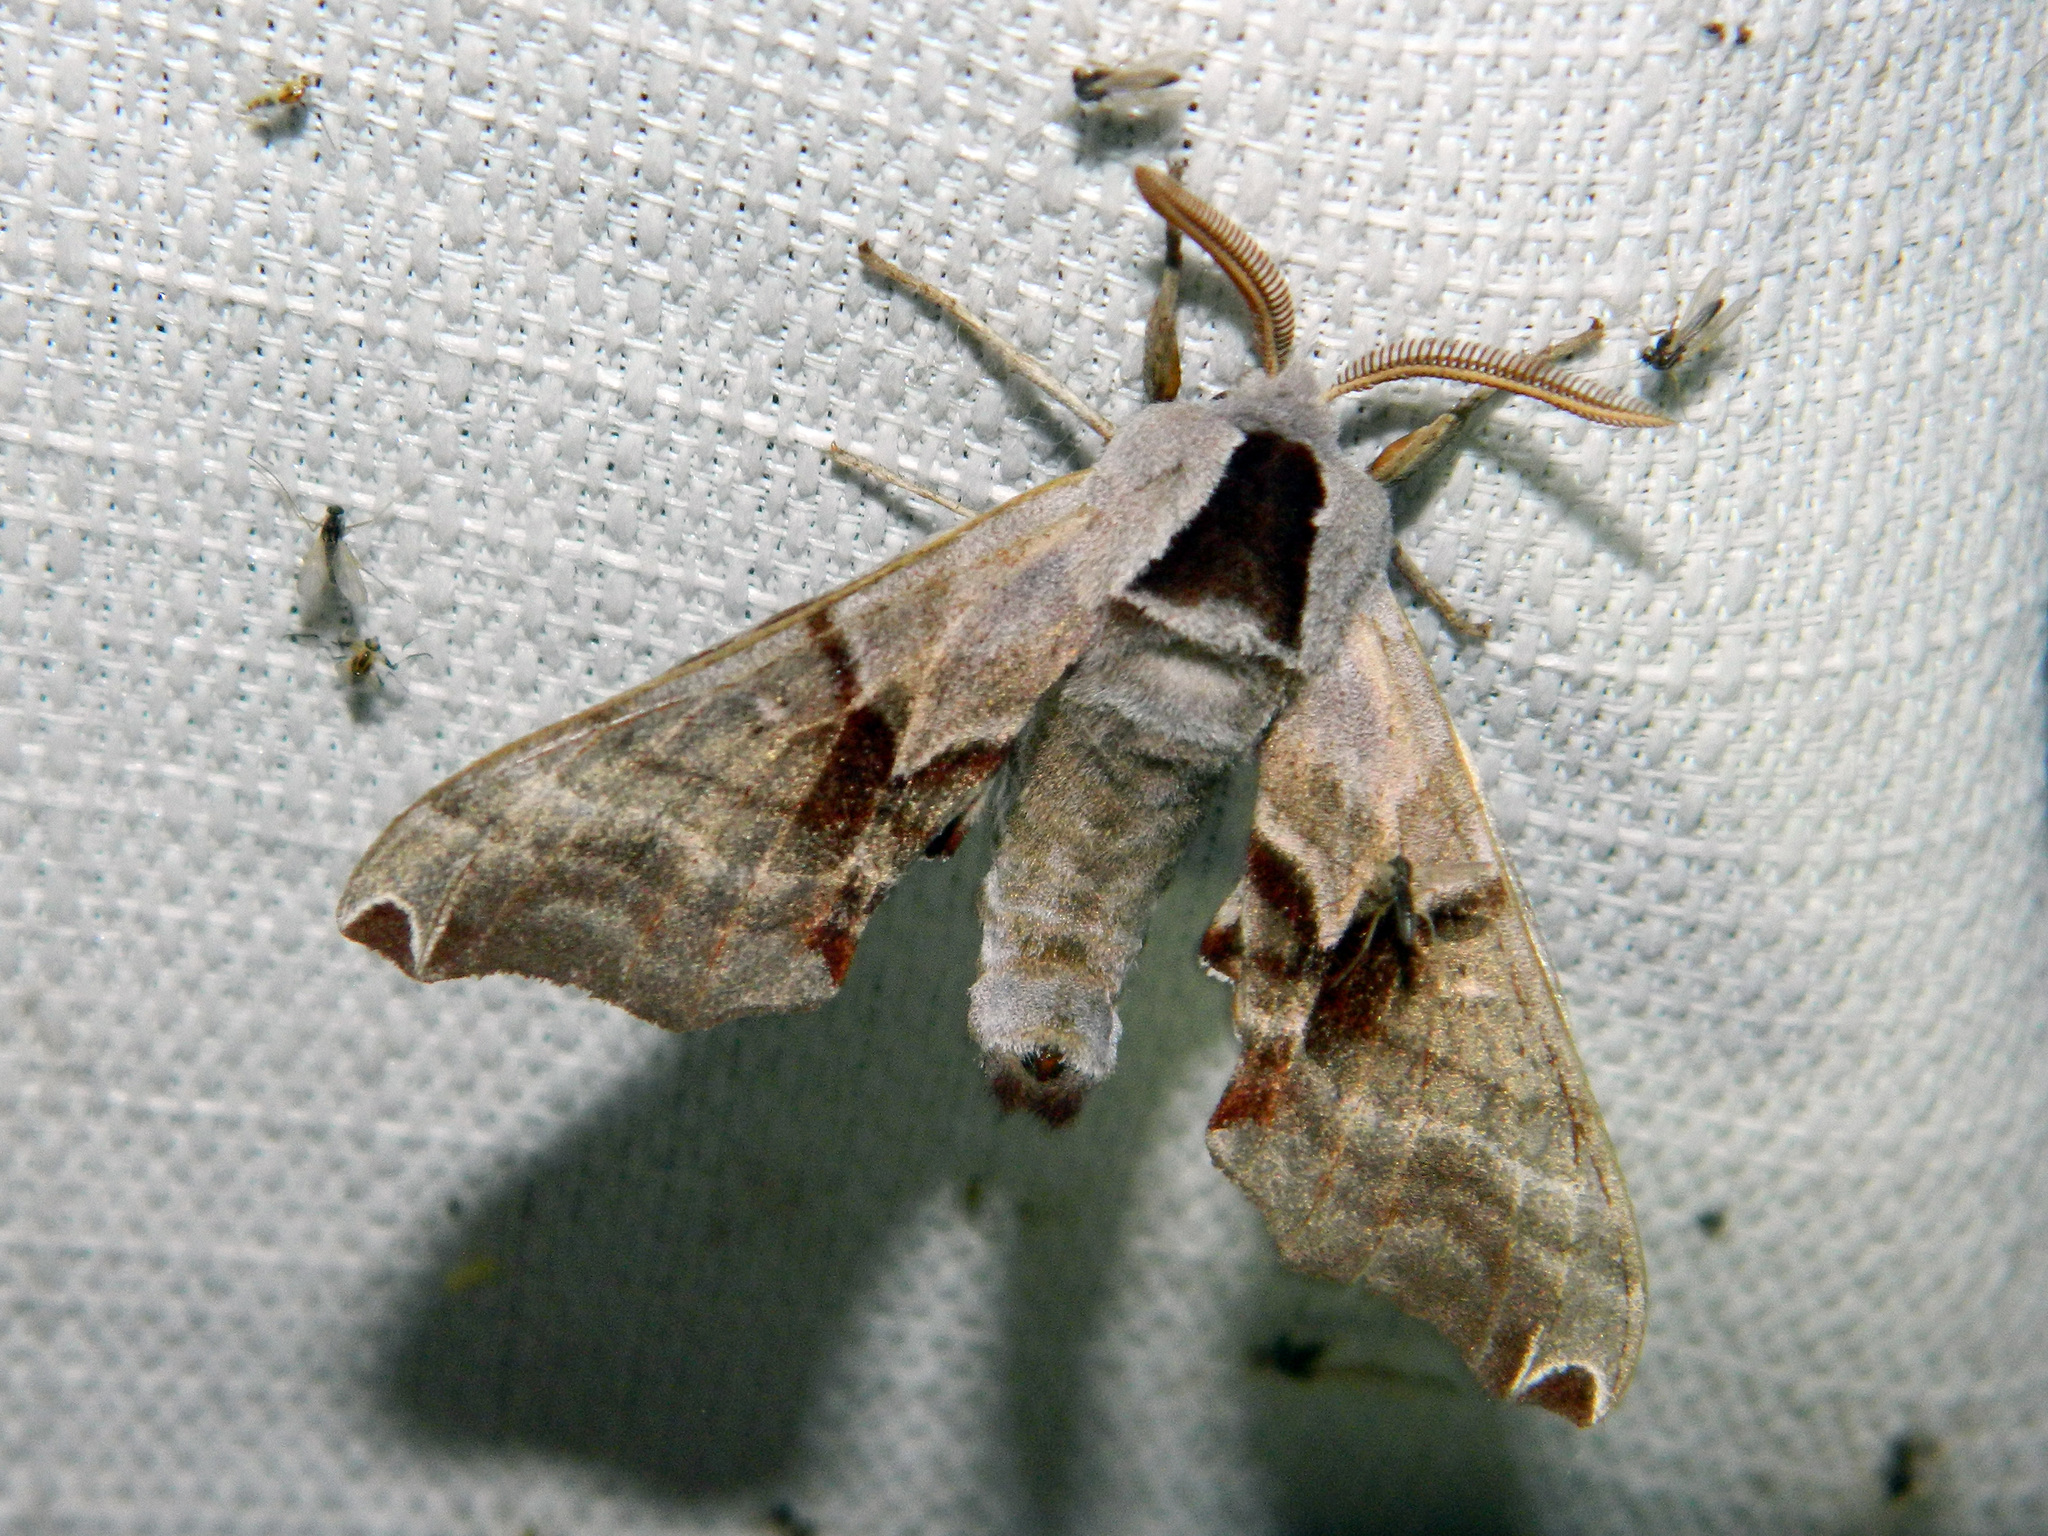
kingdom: Animalia
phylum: Arthropoda
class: Insecta
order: Lepidoptera
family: Sphingidae
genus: Smerinthus
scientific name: Smerinthus jamaicensis
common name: Twin spotted sphinx
